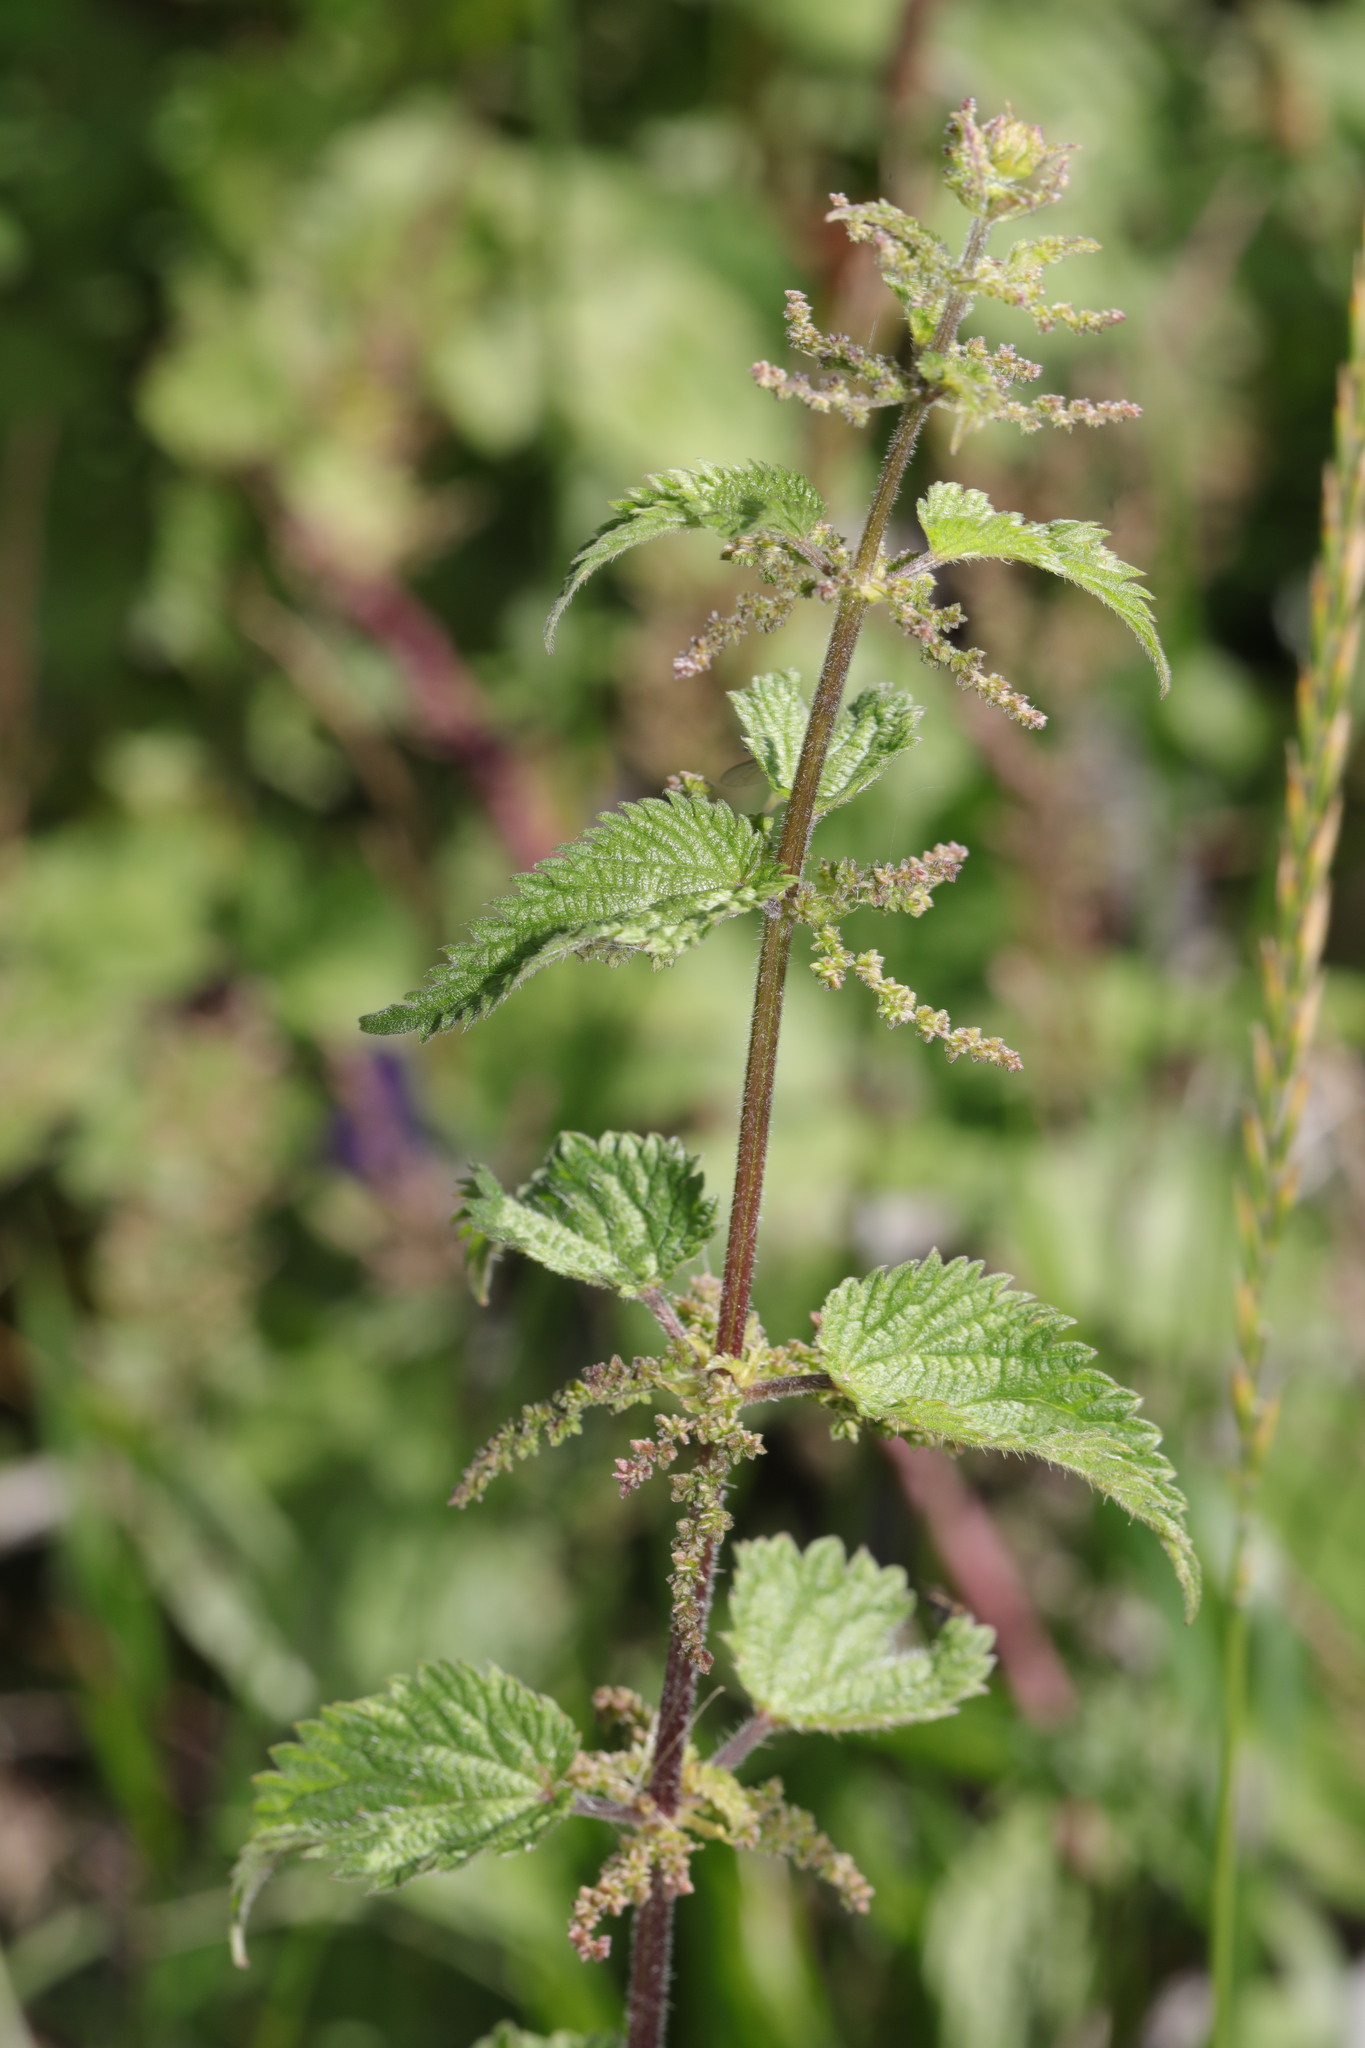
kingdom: Plantae
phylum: Tracheophyta
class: Magnoliopsida
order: Rosales
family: Urticaceae
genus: Urtica
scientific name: Urtica dioica
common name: Common nettle
